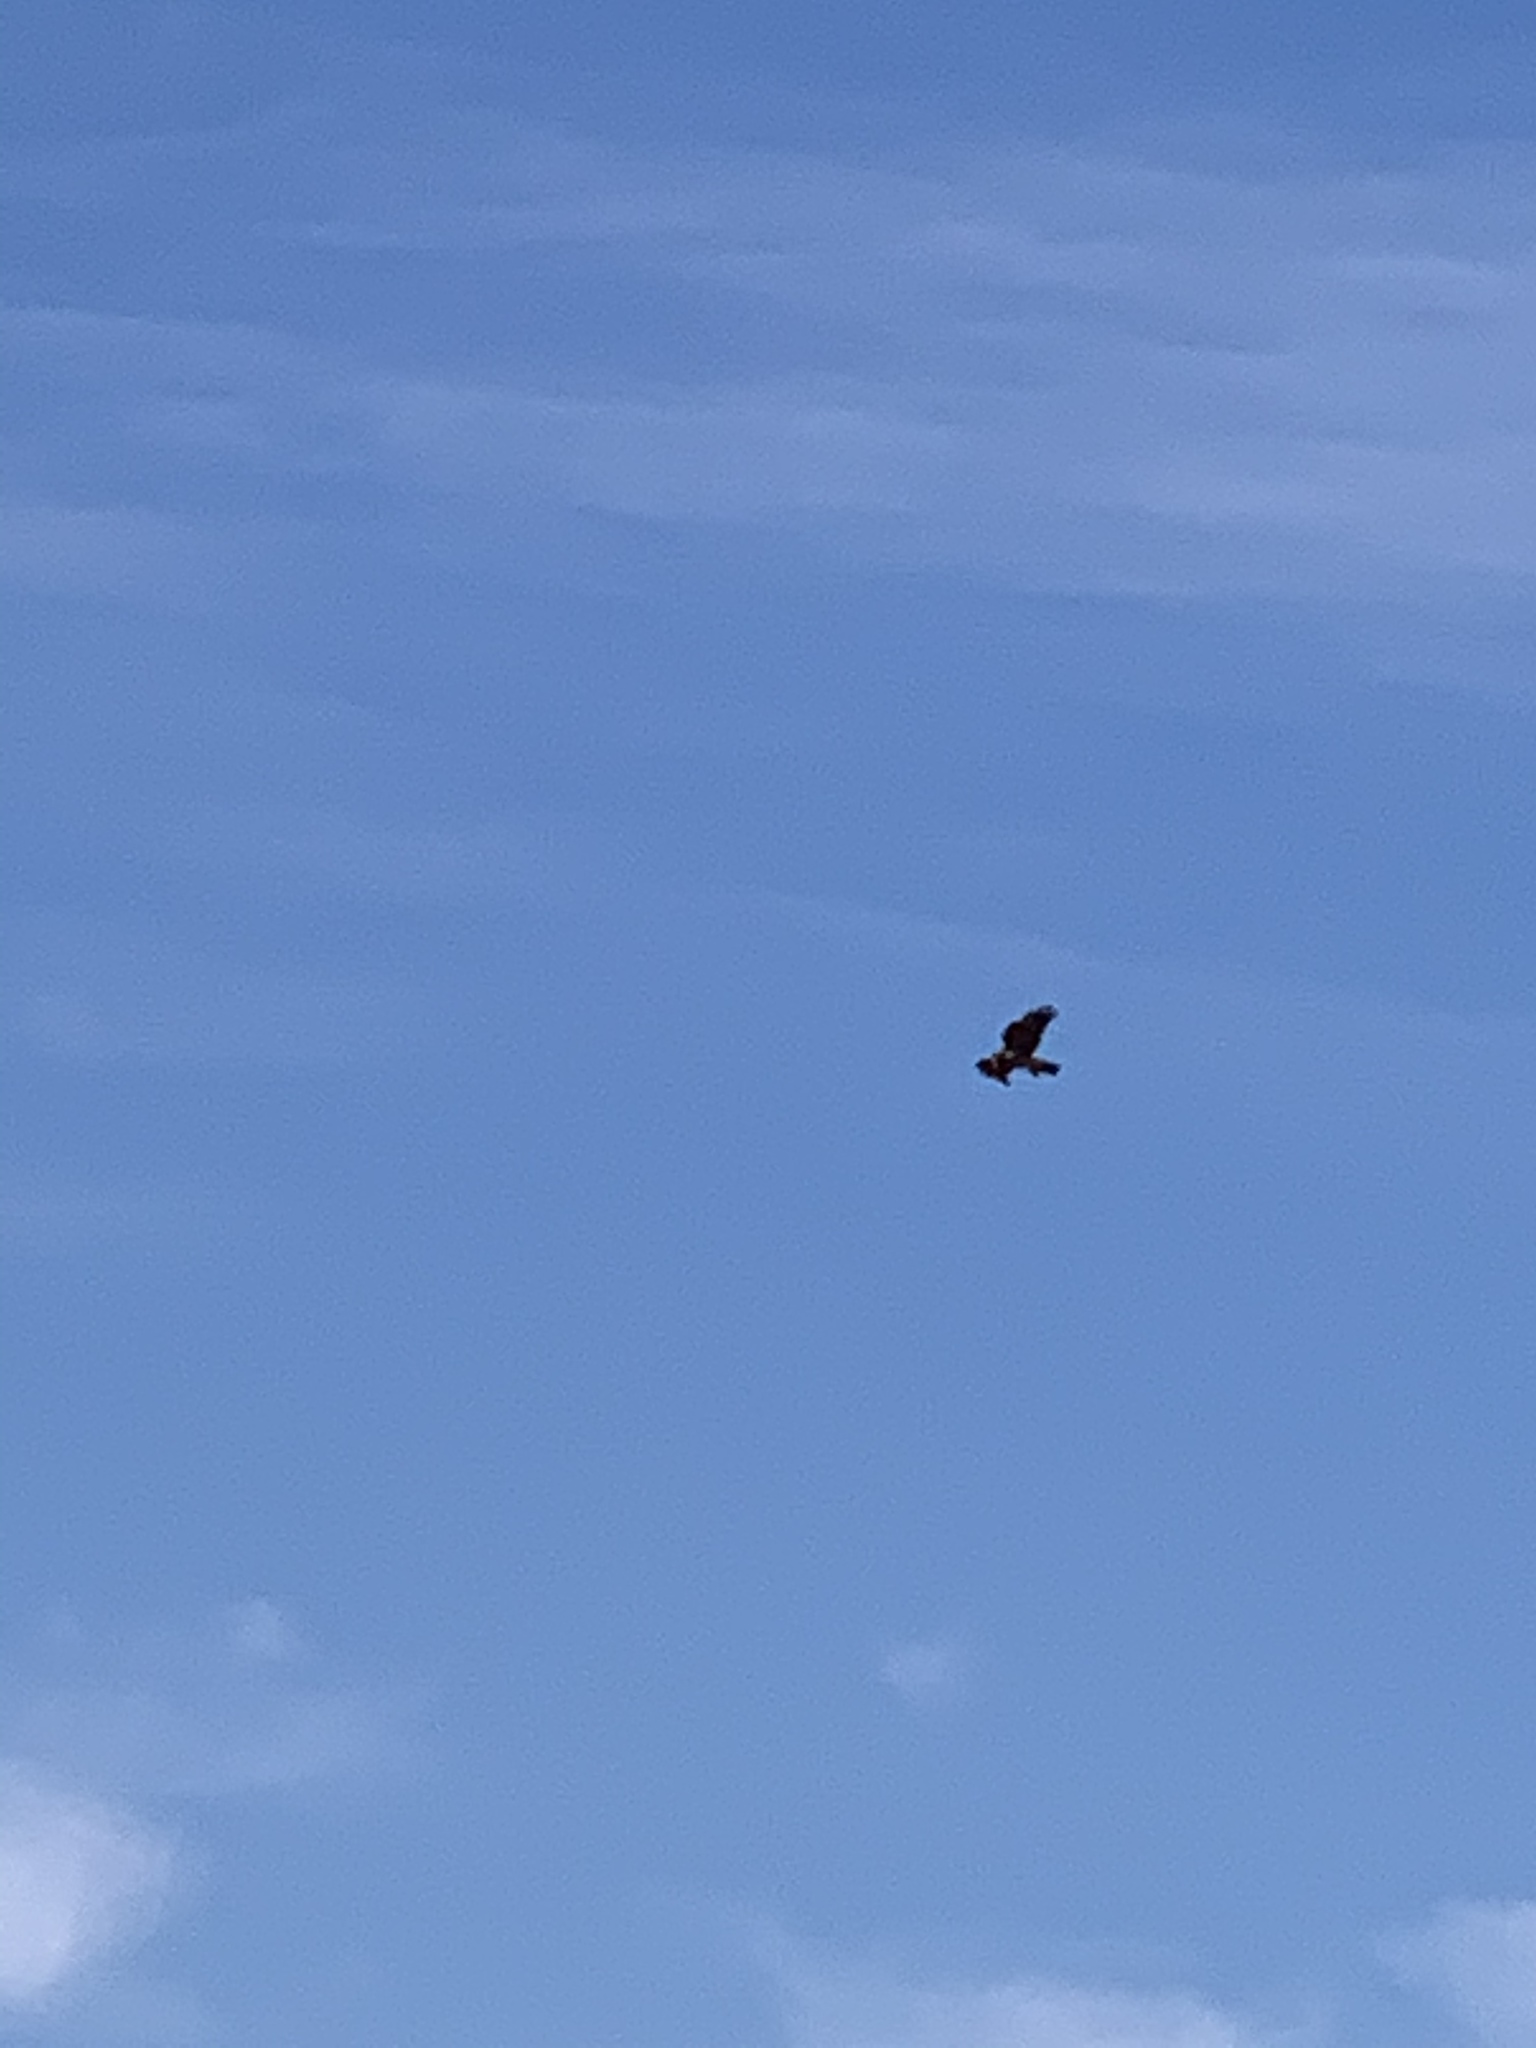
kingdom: Animalia
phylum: Chordata
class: Aves
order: Accipitriformes
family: Accipitridae
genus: Buteo
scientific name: Buteo jamaicensis
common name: Red-tailed hawk
